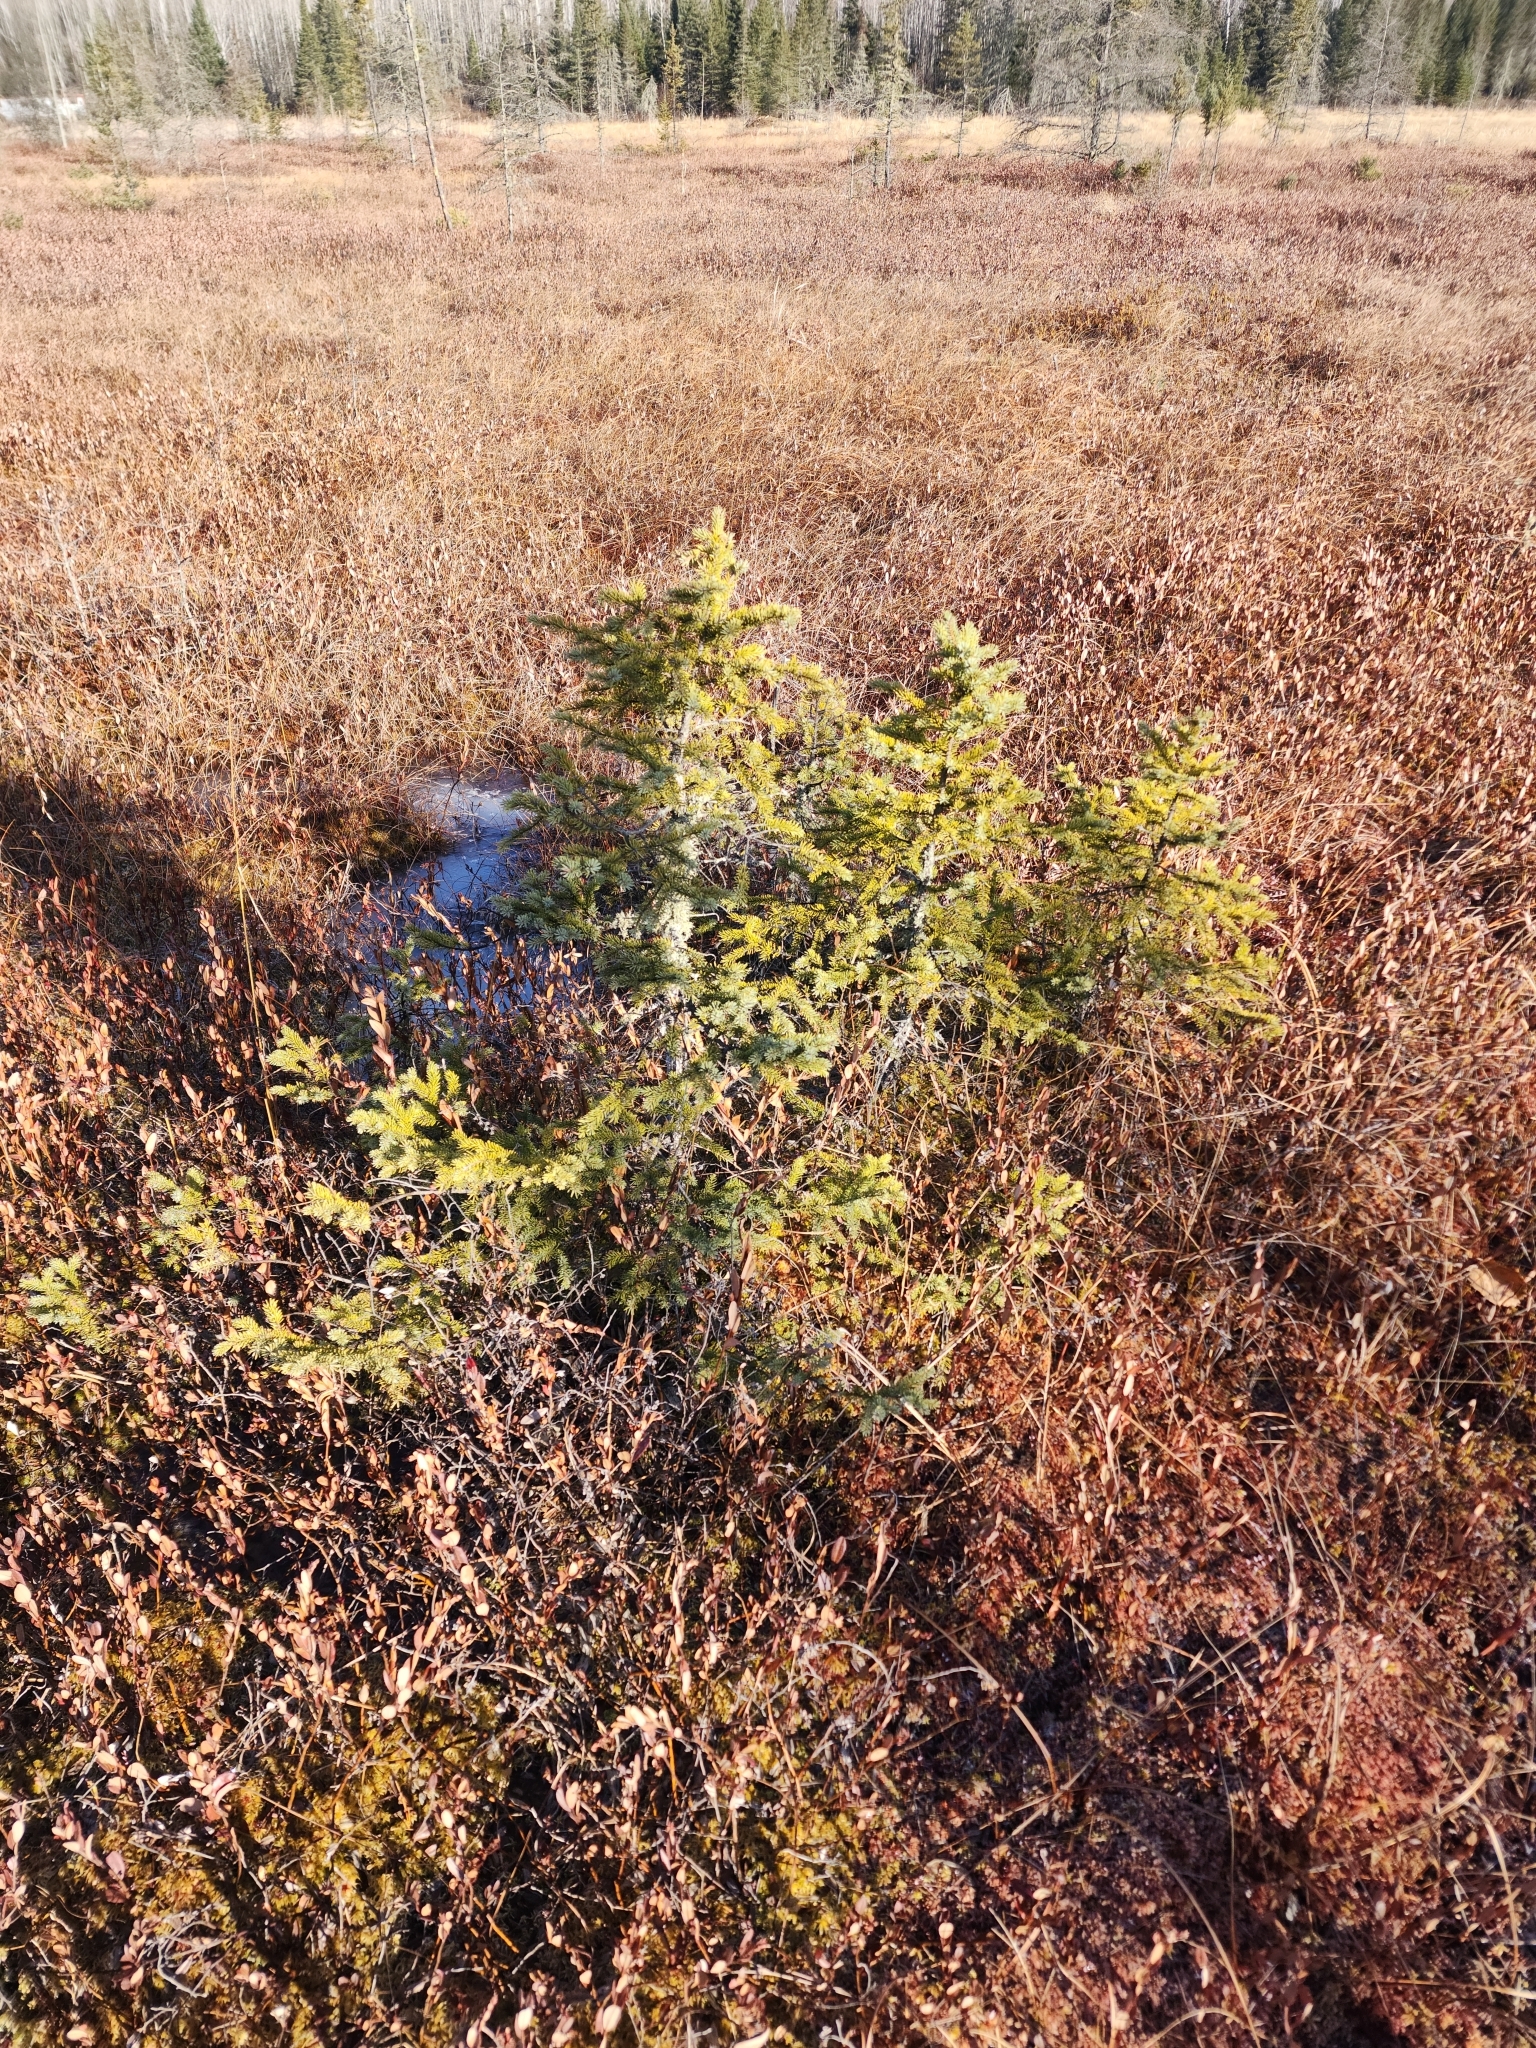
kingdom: Plantae
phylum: Tracheophyta
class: Pinopsida
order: Pinales
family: Pinaceae
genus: Picea
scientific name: Picea mariana
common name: Black spruce
